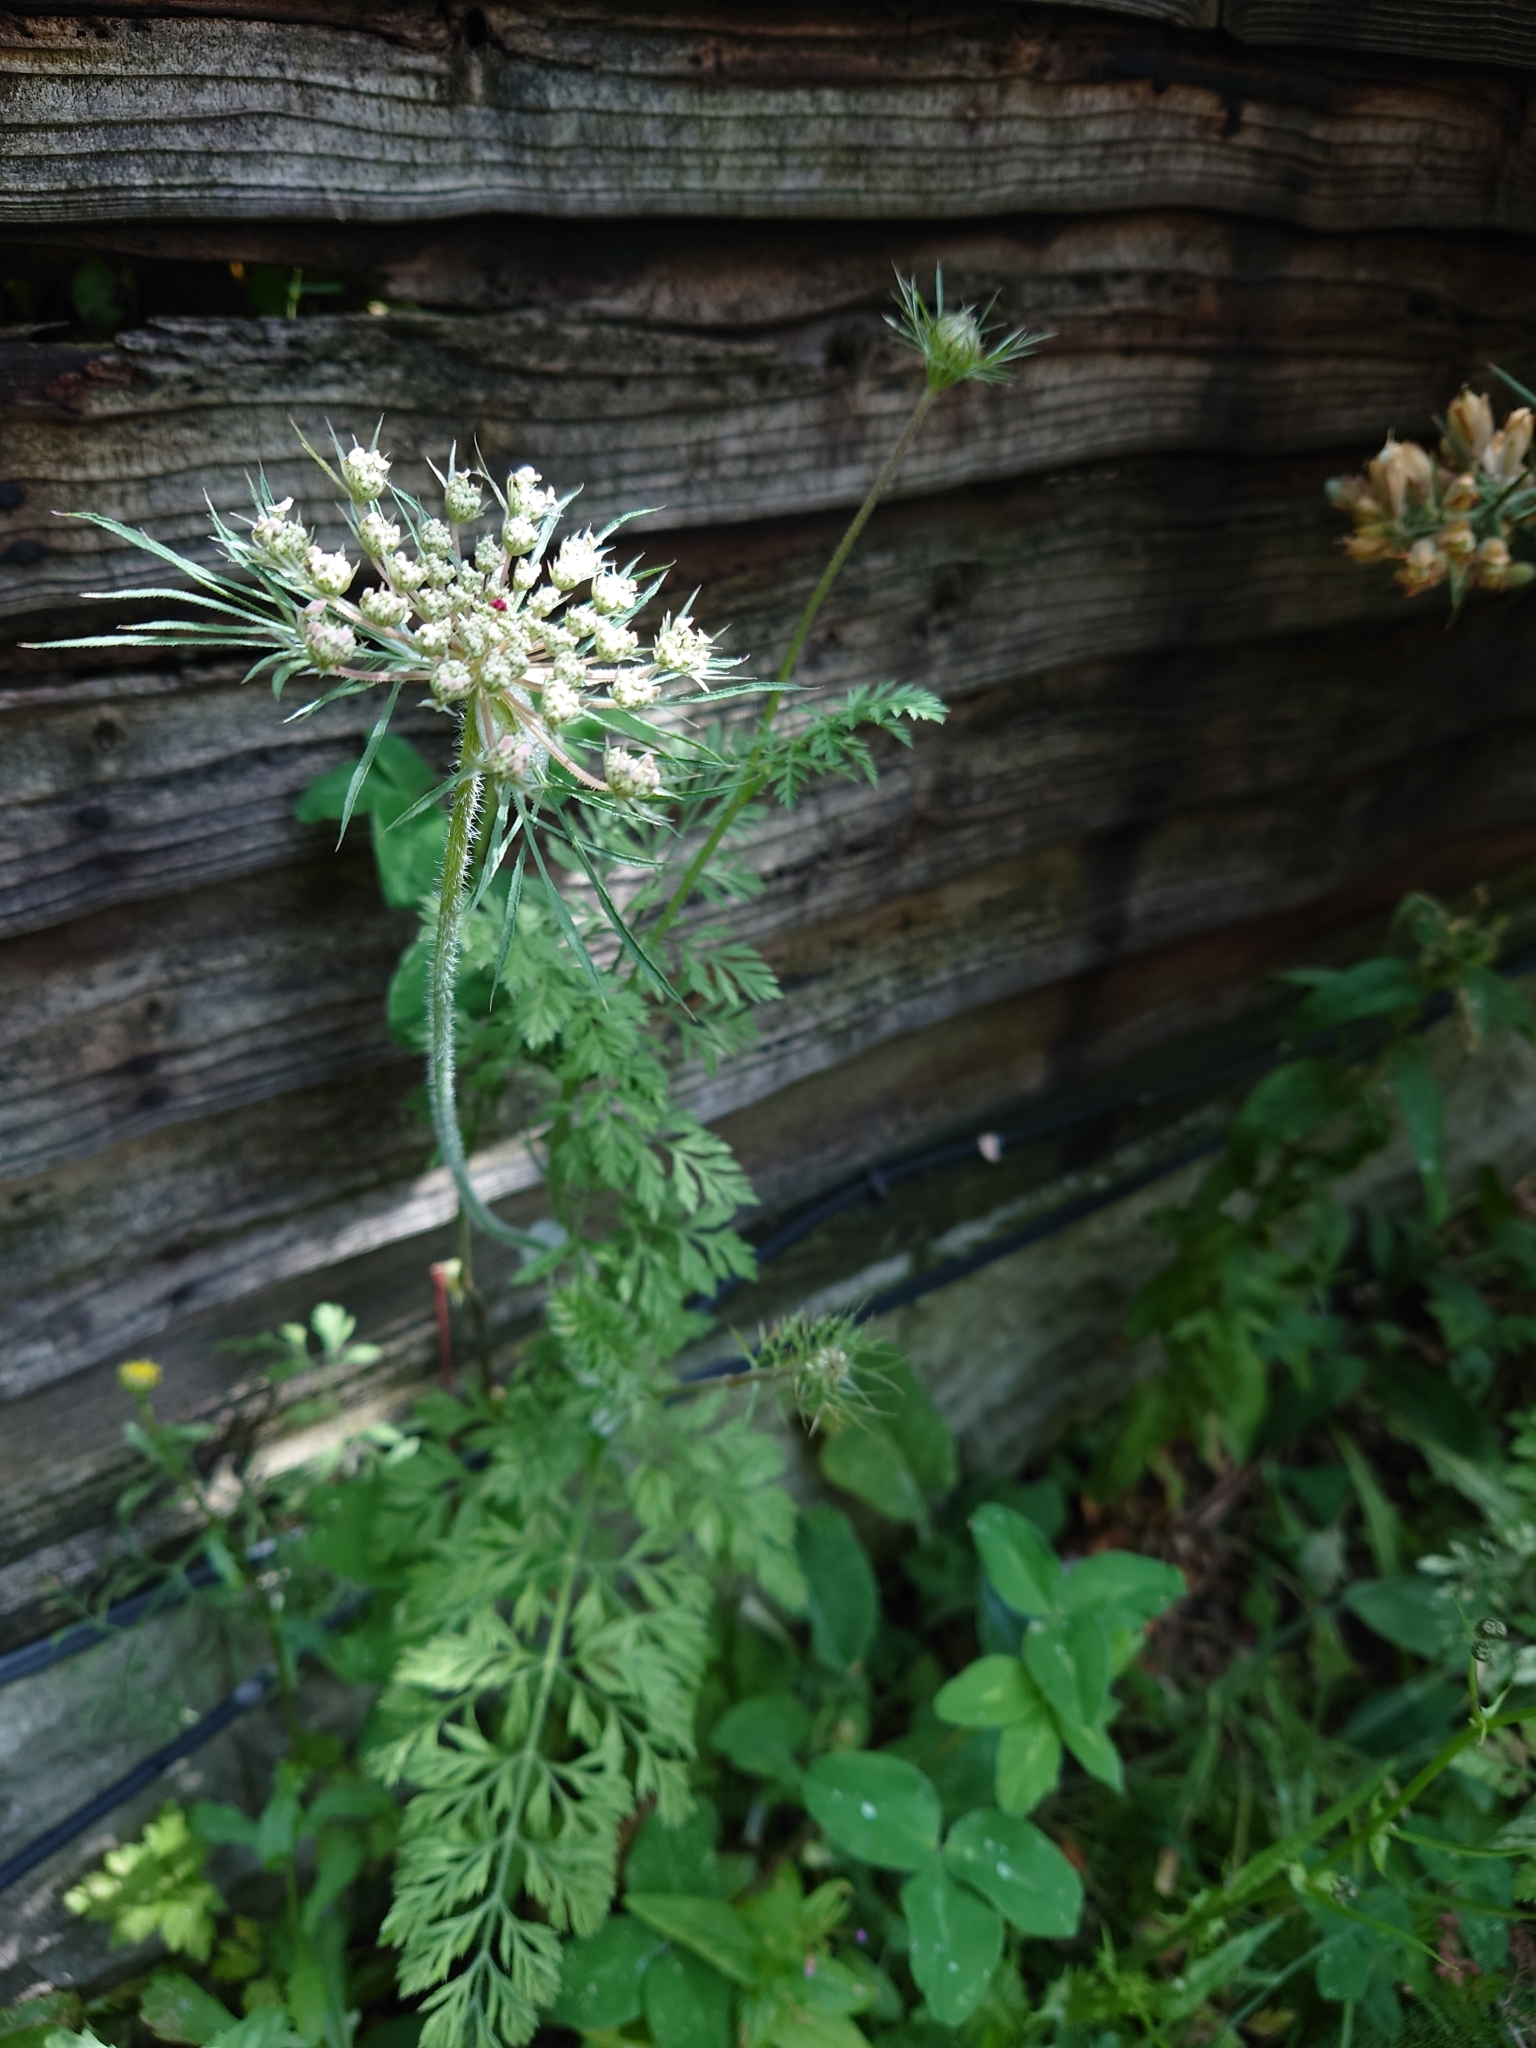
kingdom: Plantae
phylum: Tracheophyta
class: Magnoliopsida
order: Apiales
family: Apiaceae
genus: Daucus
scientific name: Daucus carota
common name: Wild carrot
